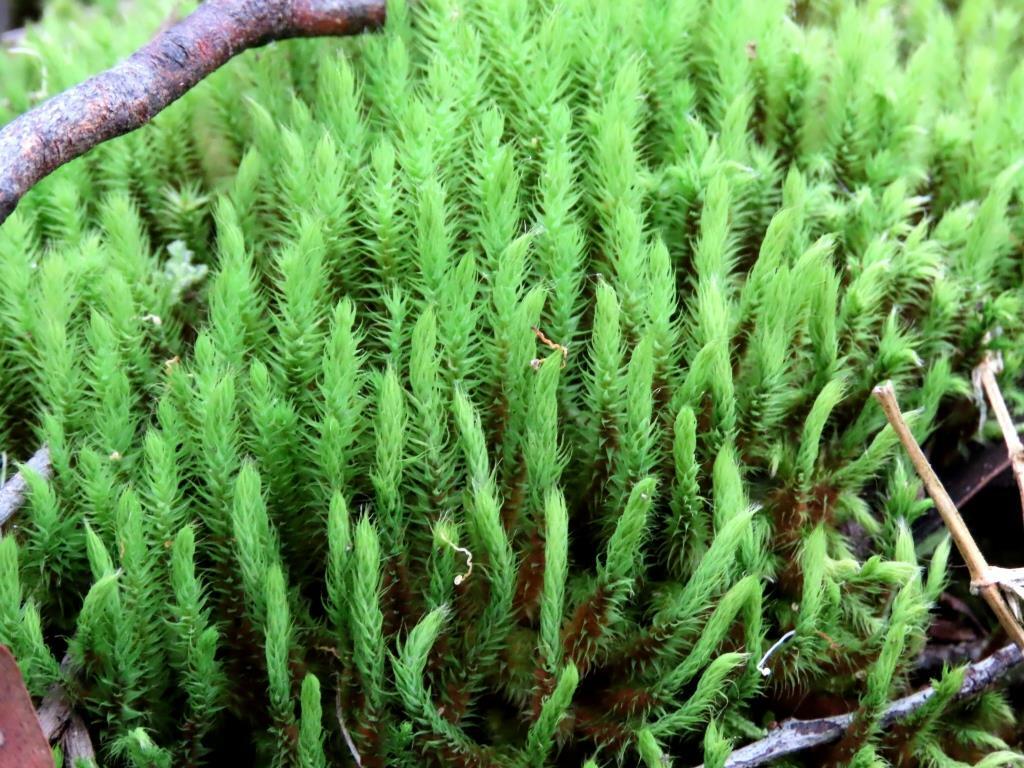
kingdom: Plantae
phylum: Bryophyta
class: Bryopsida
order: Bartramiales
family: Bartramiaceae
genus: Breutelia
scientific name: Breutelia affinis
